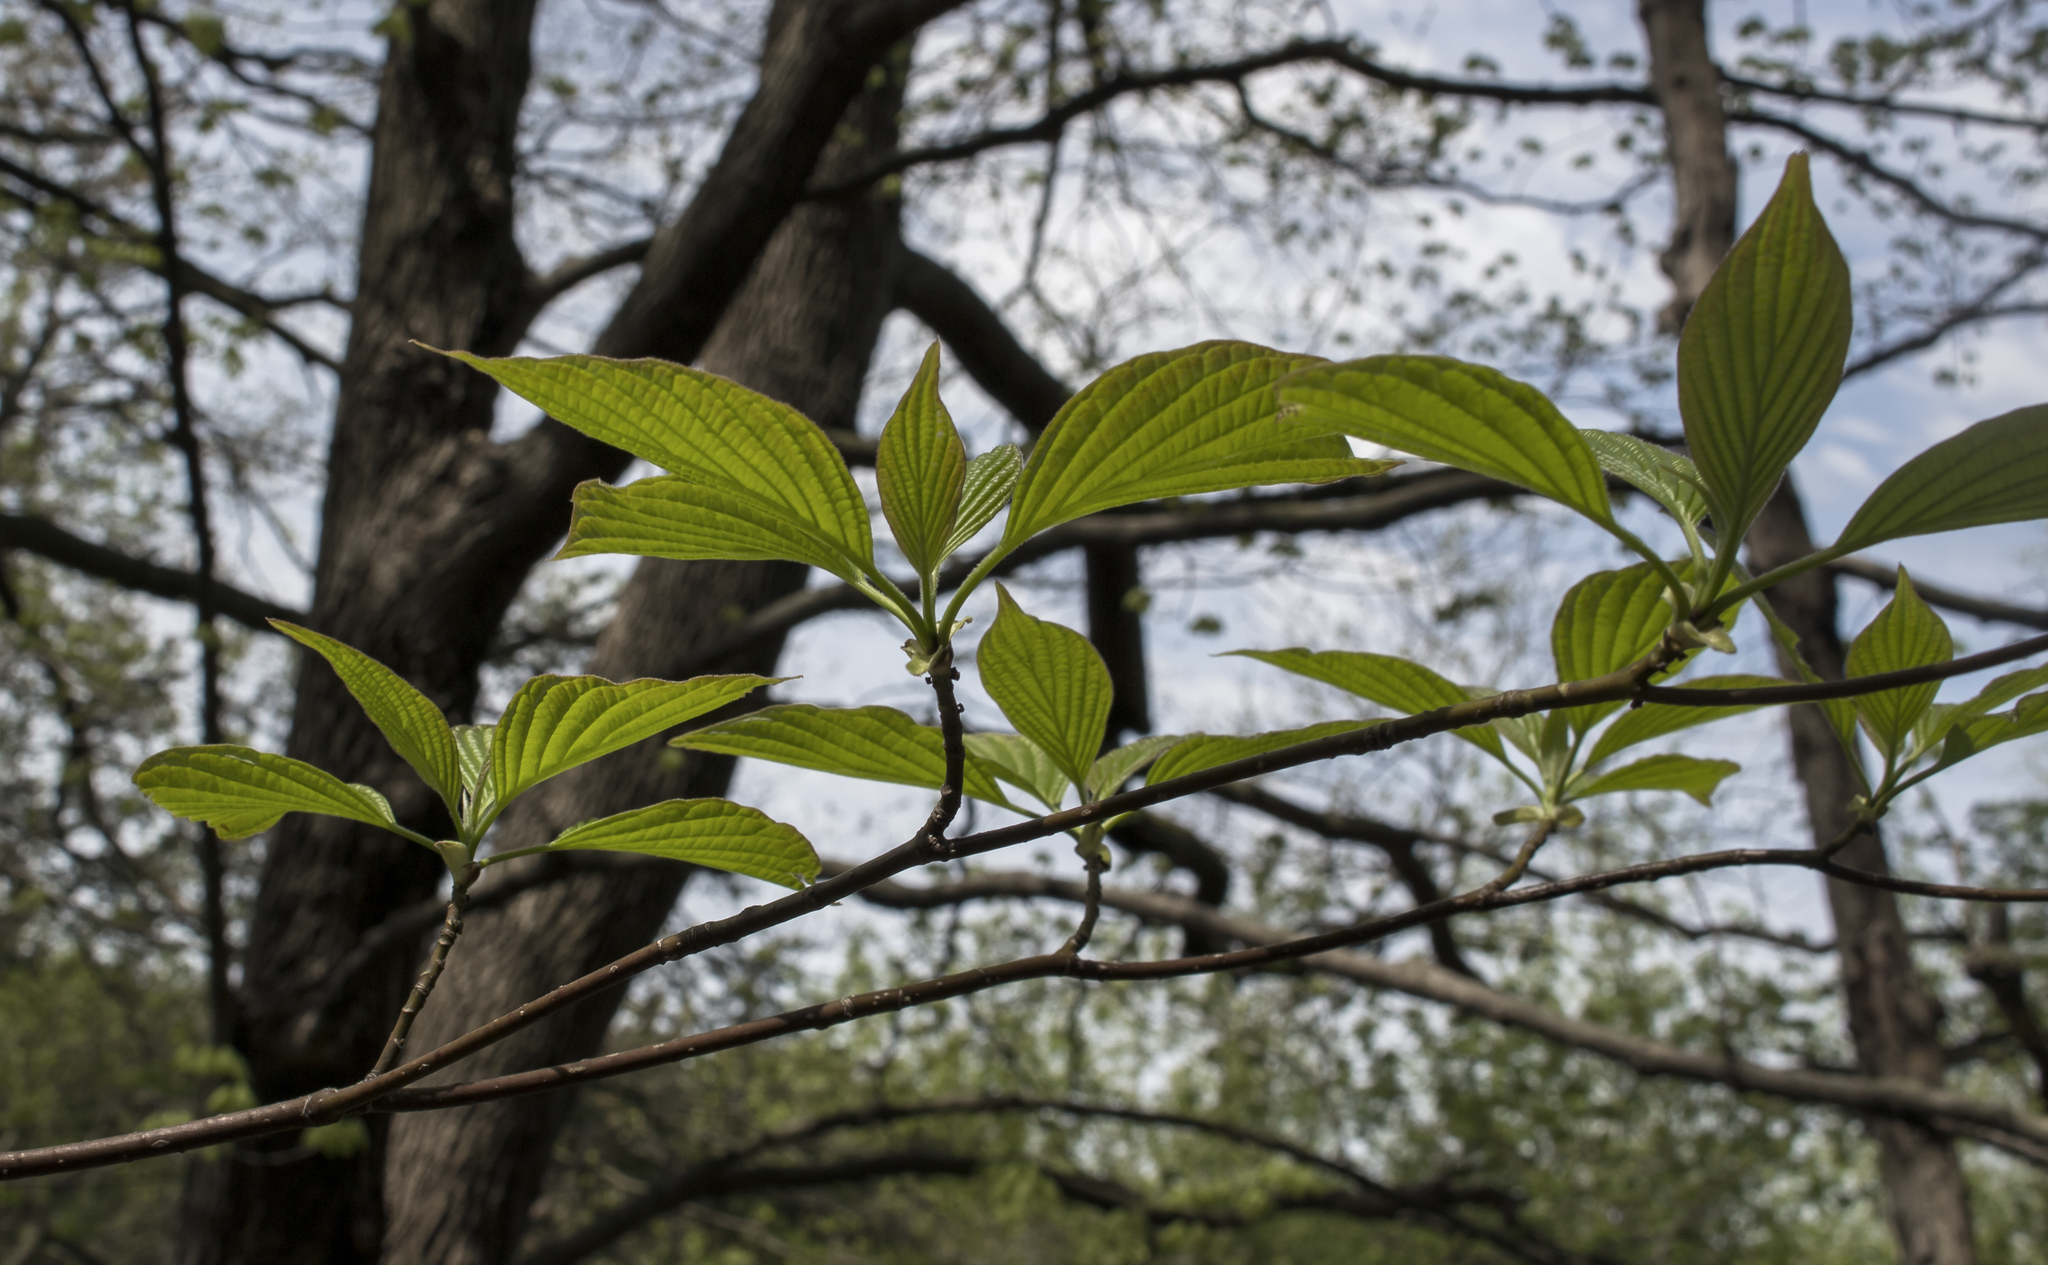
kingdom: Plantae
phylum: Tracheophyta
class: Magnoliopsida
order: Cornales
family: Cornaceae
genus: Cornus
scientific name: Cornus alternifolia
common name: Pagoda dogwood
